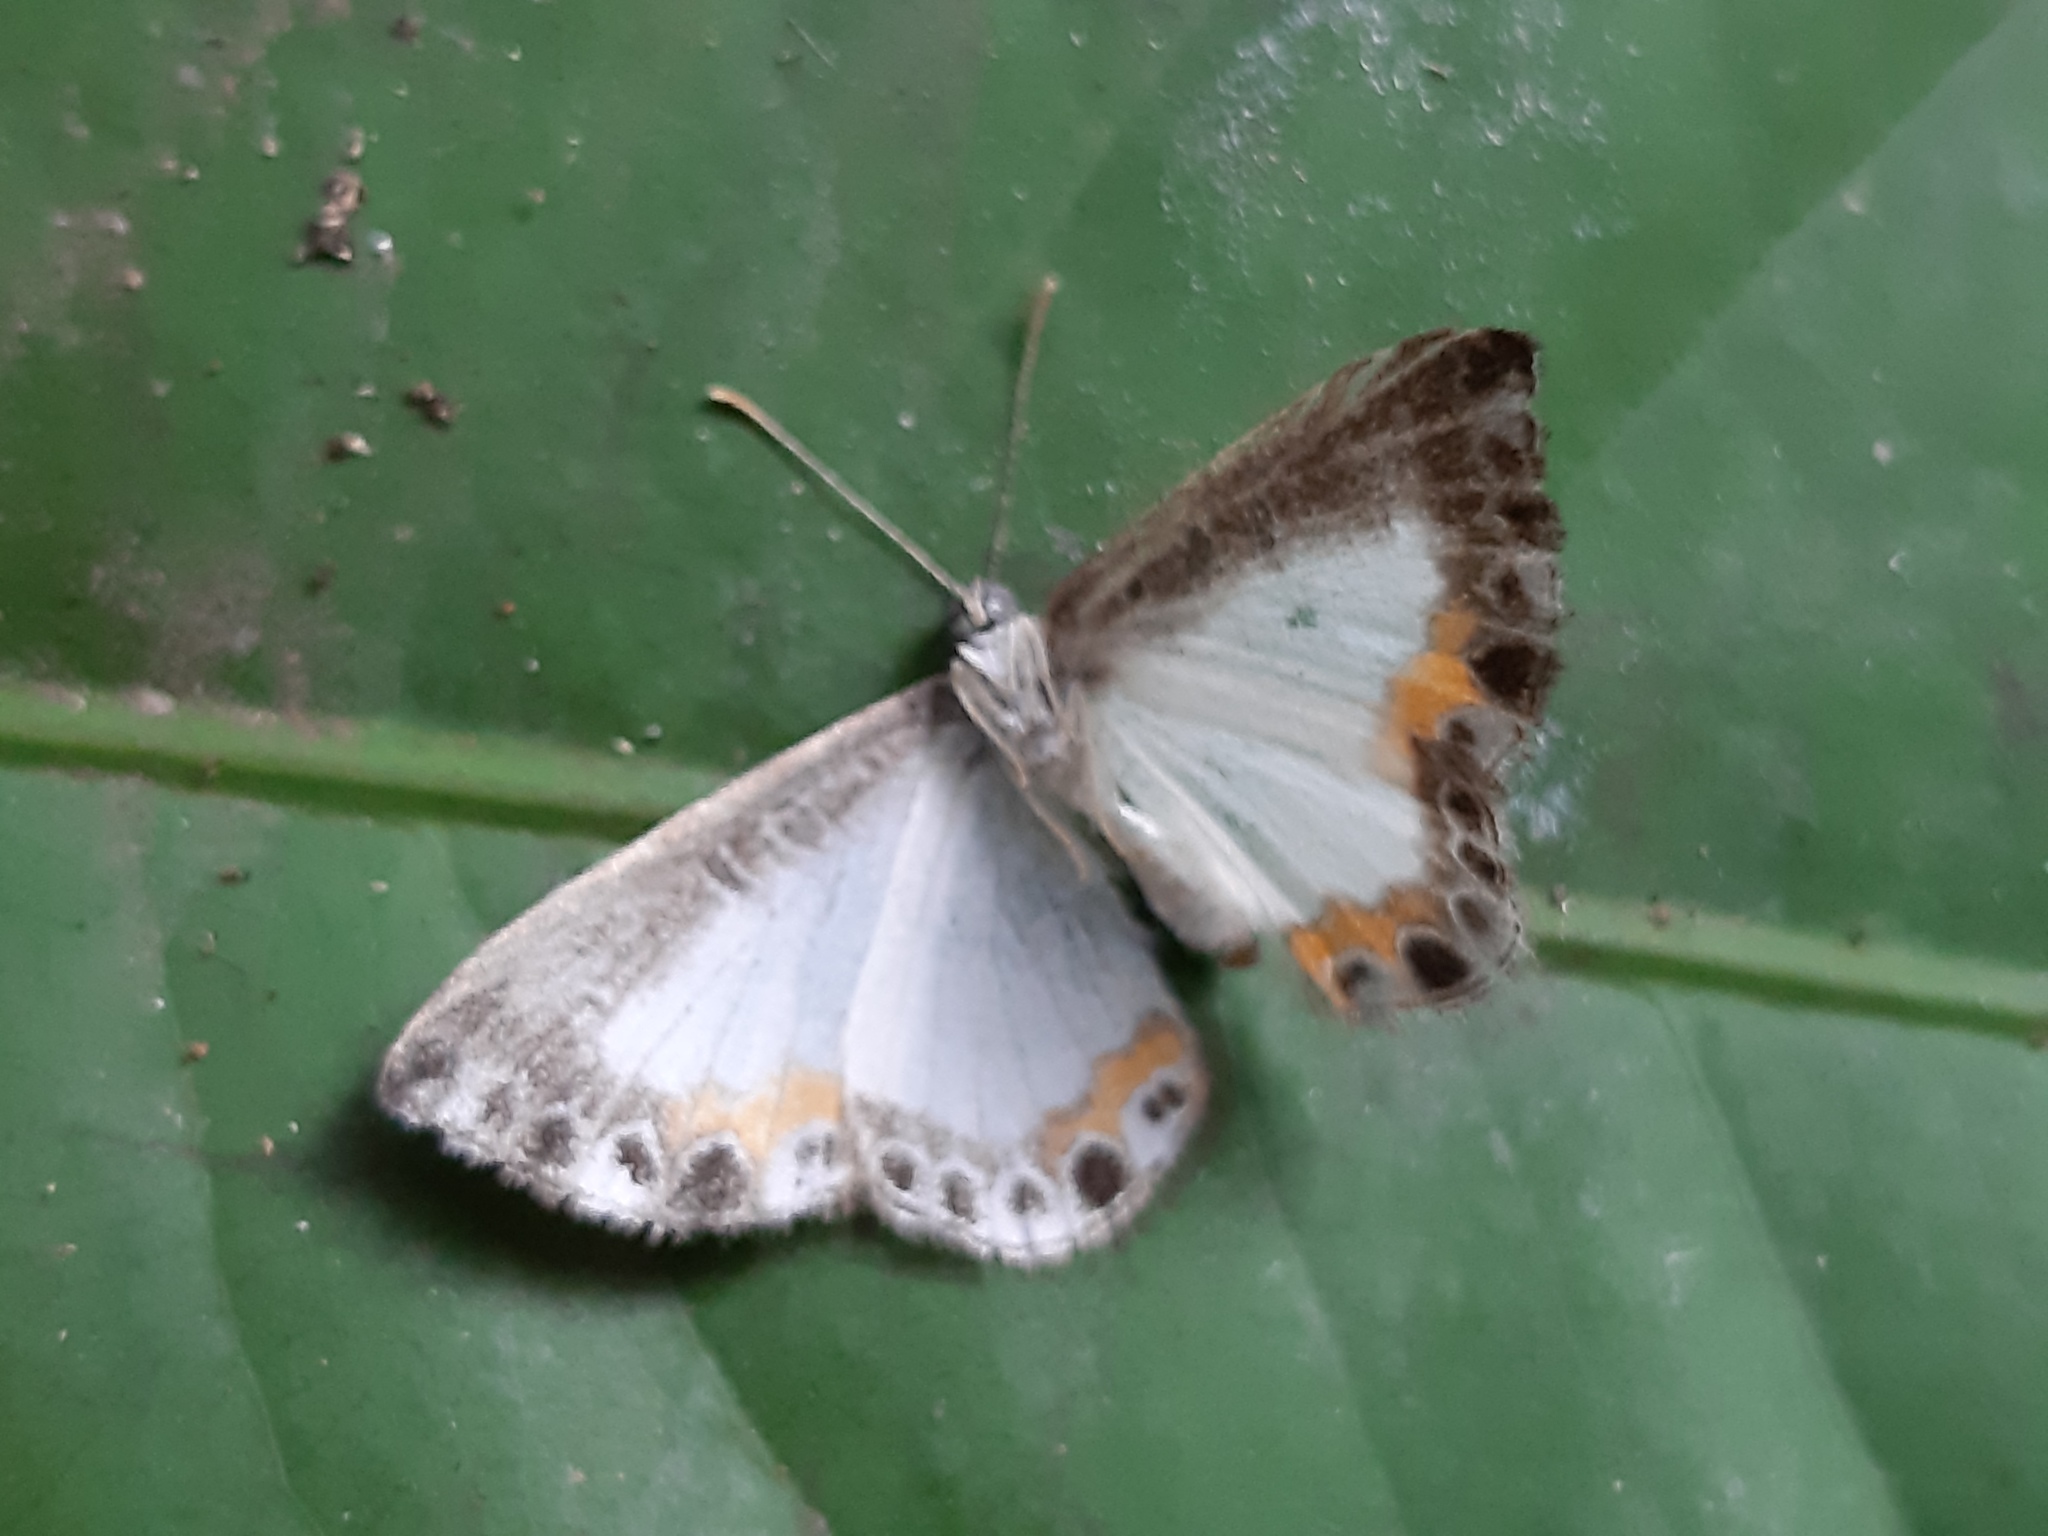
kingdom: Animalia
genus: Nymphidium
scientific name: Nymphidium omois
